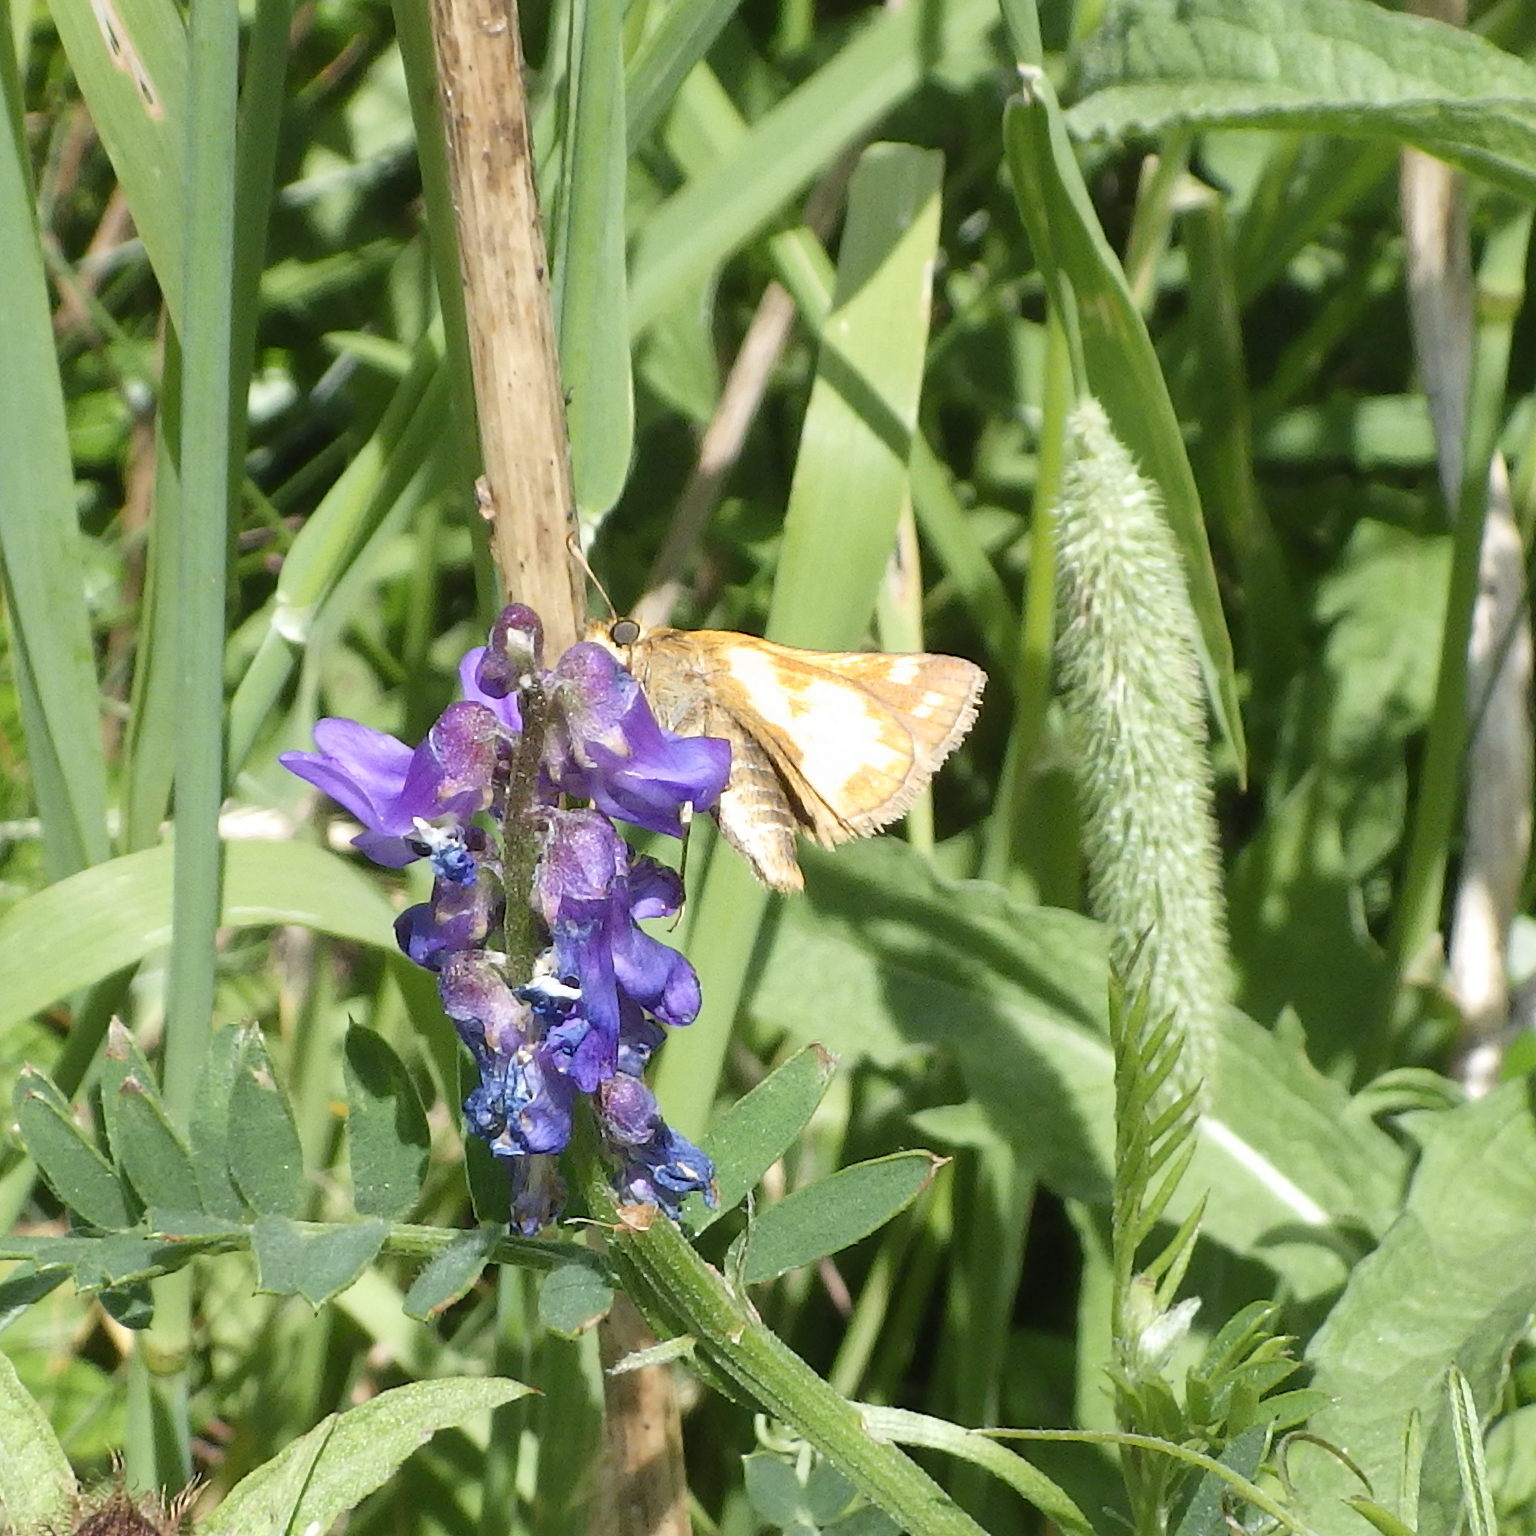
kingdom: Animalia
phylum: Arthropoda
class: Insecta
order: Lepidoptera
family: Hesperiidae
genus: Polites
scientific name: Polites coras
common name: Peck's skipper
